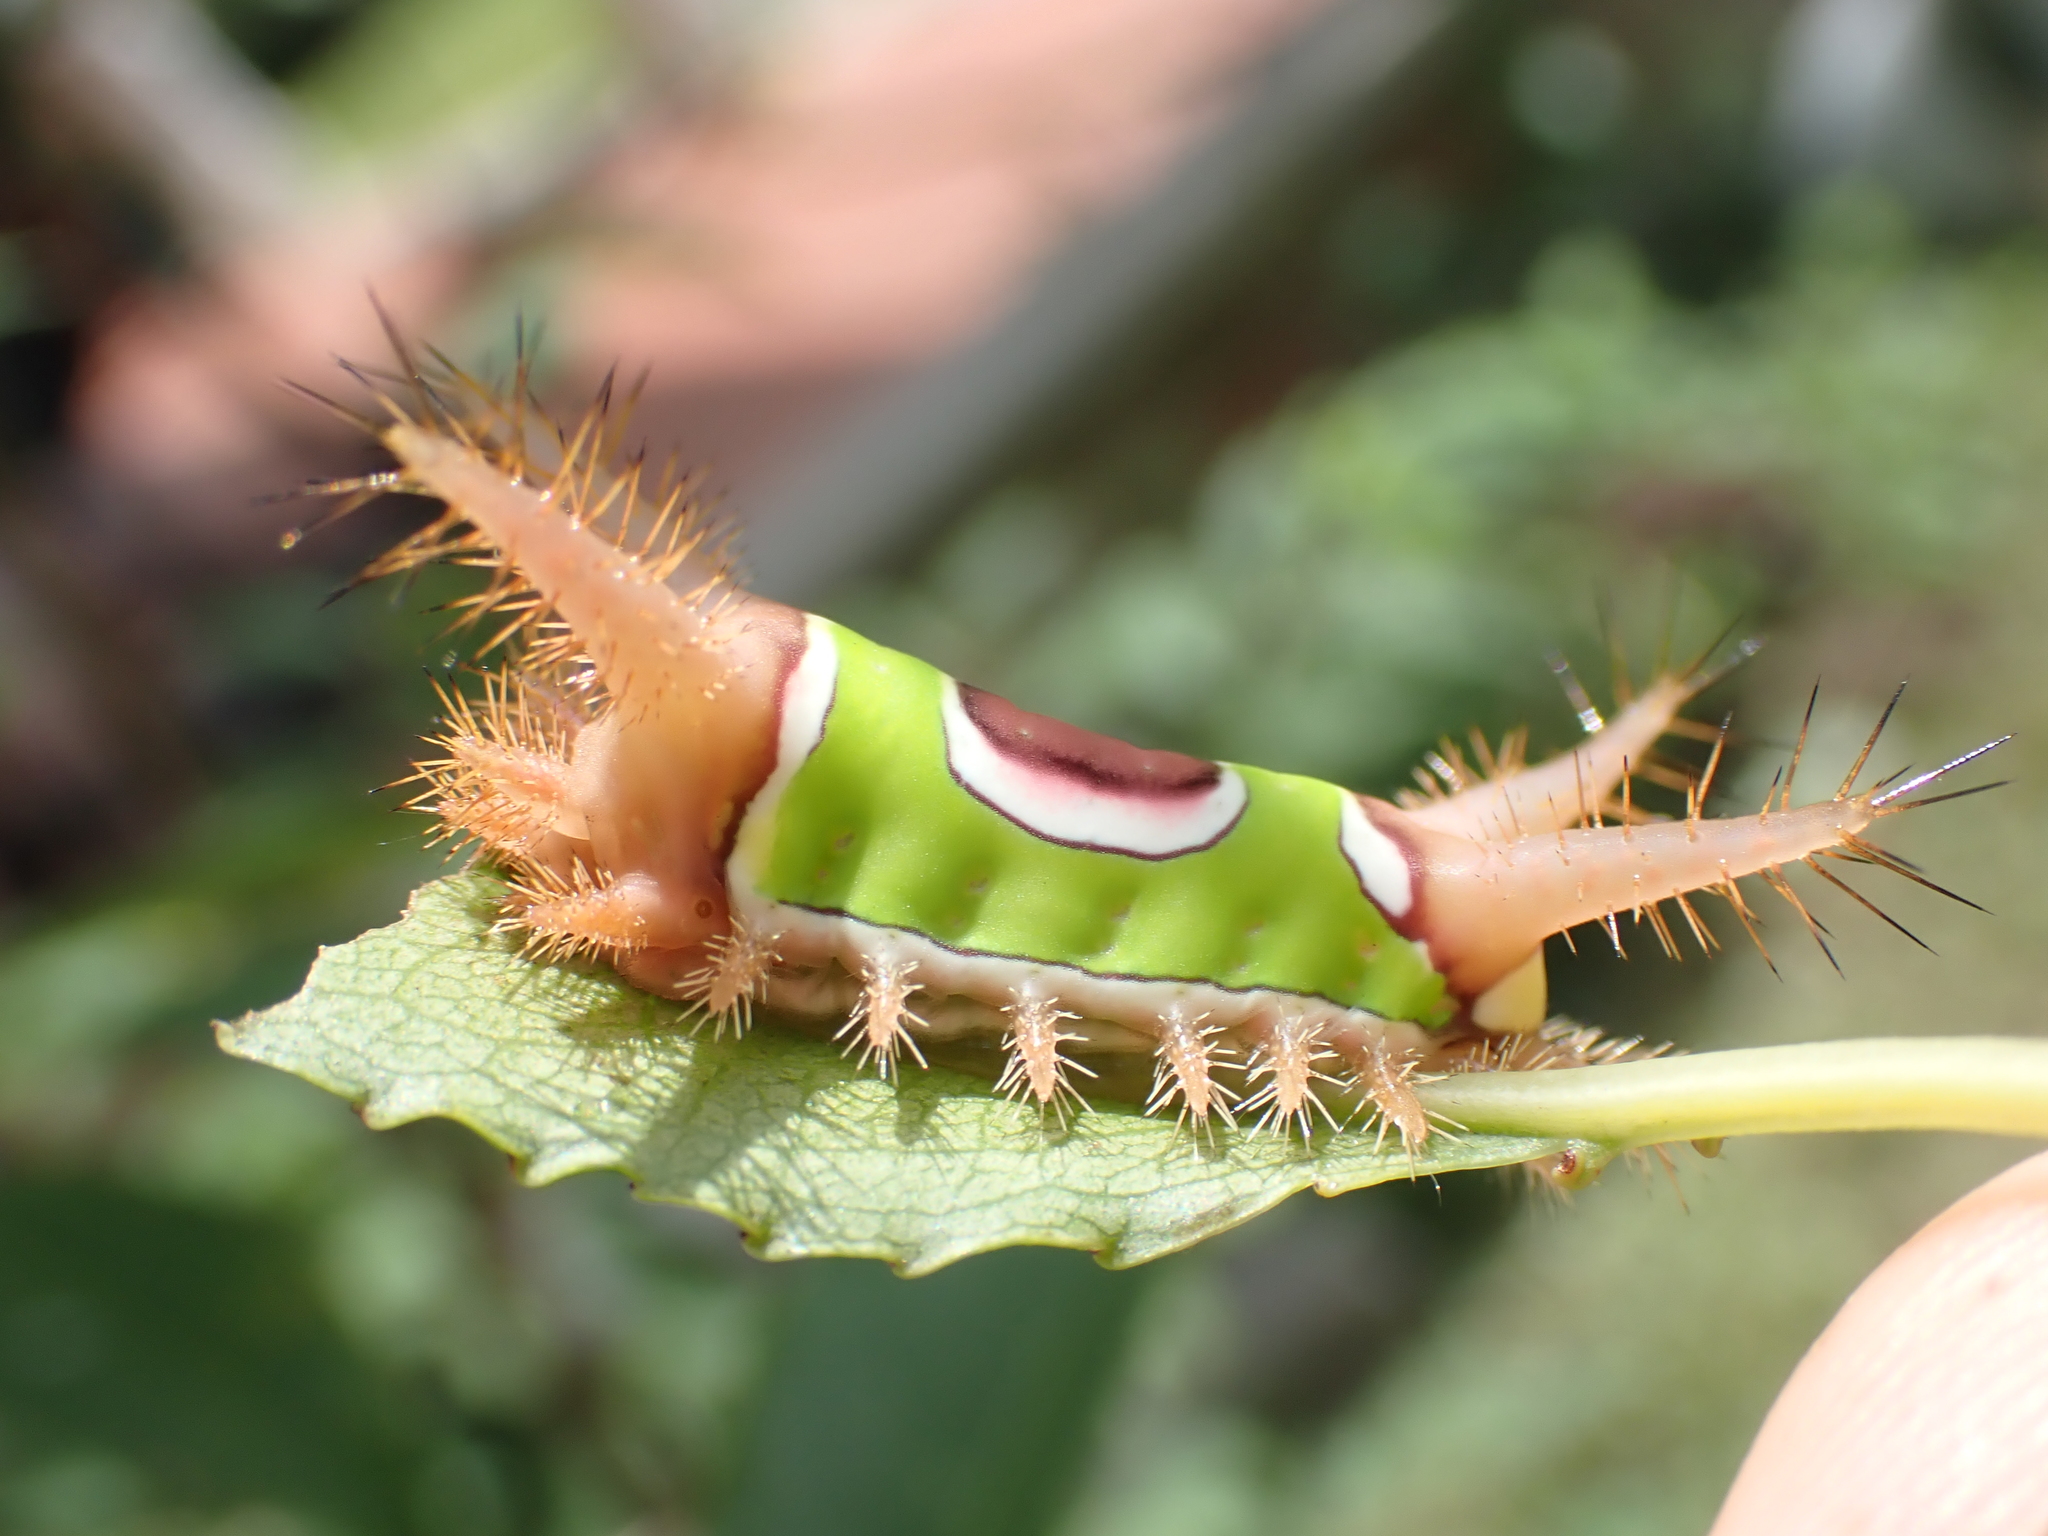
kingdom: Animalia
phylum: Arthropoda
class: Insecta
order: Lepidoptera
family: Limacodidae
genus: Acharia
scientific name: Acharia stimulea
